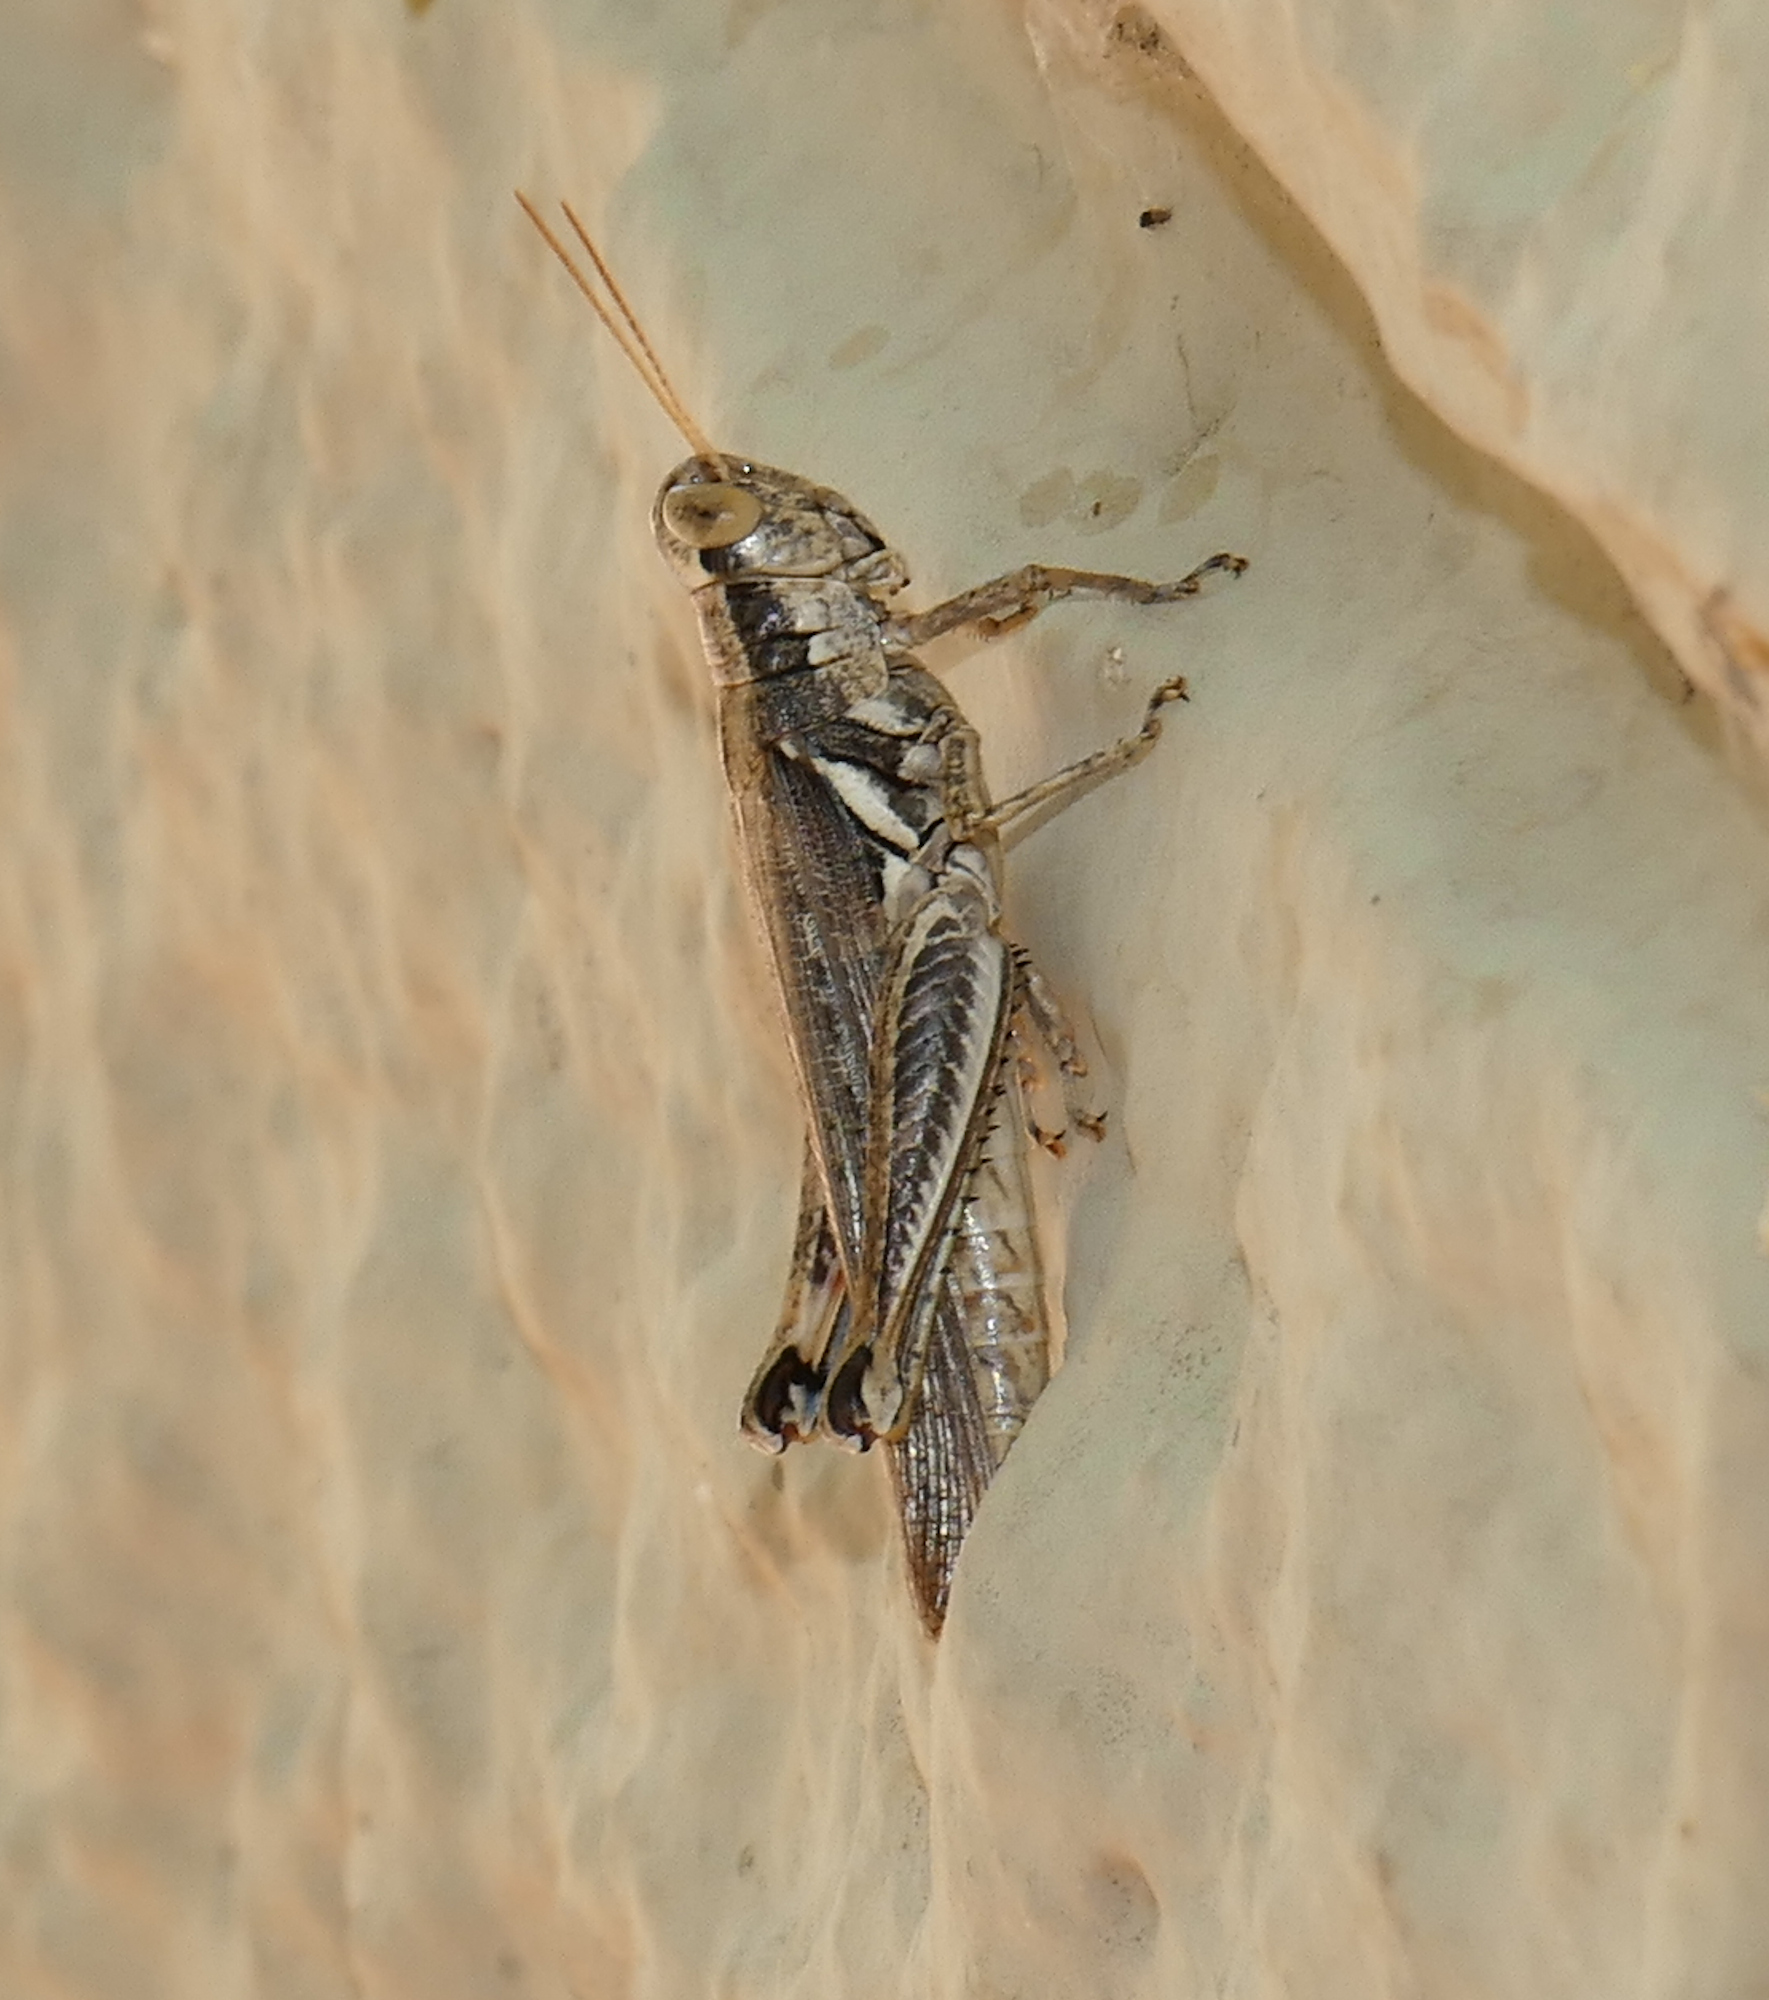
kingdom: Animalia
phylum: Arthropoda
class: Insecta
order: Orthoptera
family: Acrididae
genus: Melanoplus
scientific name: Melanoplus pictus
